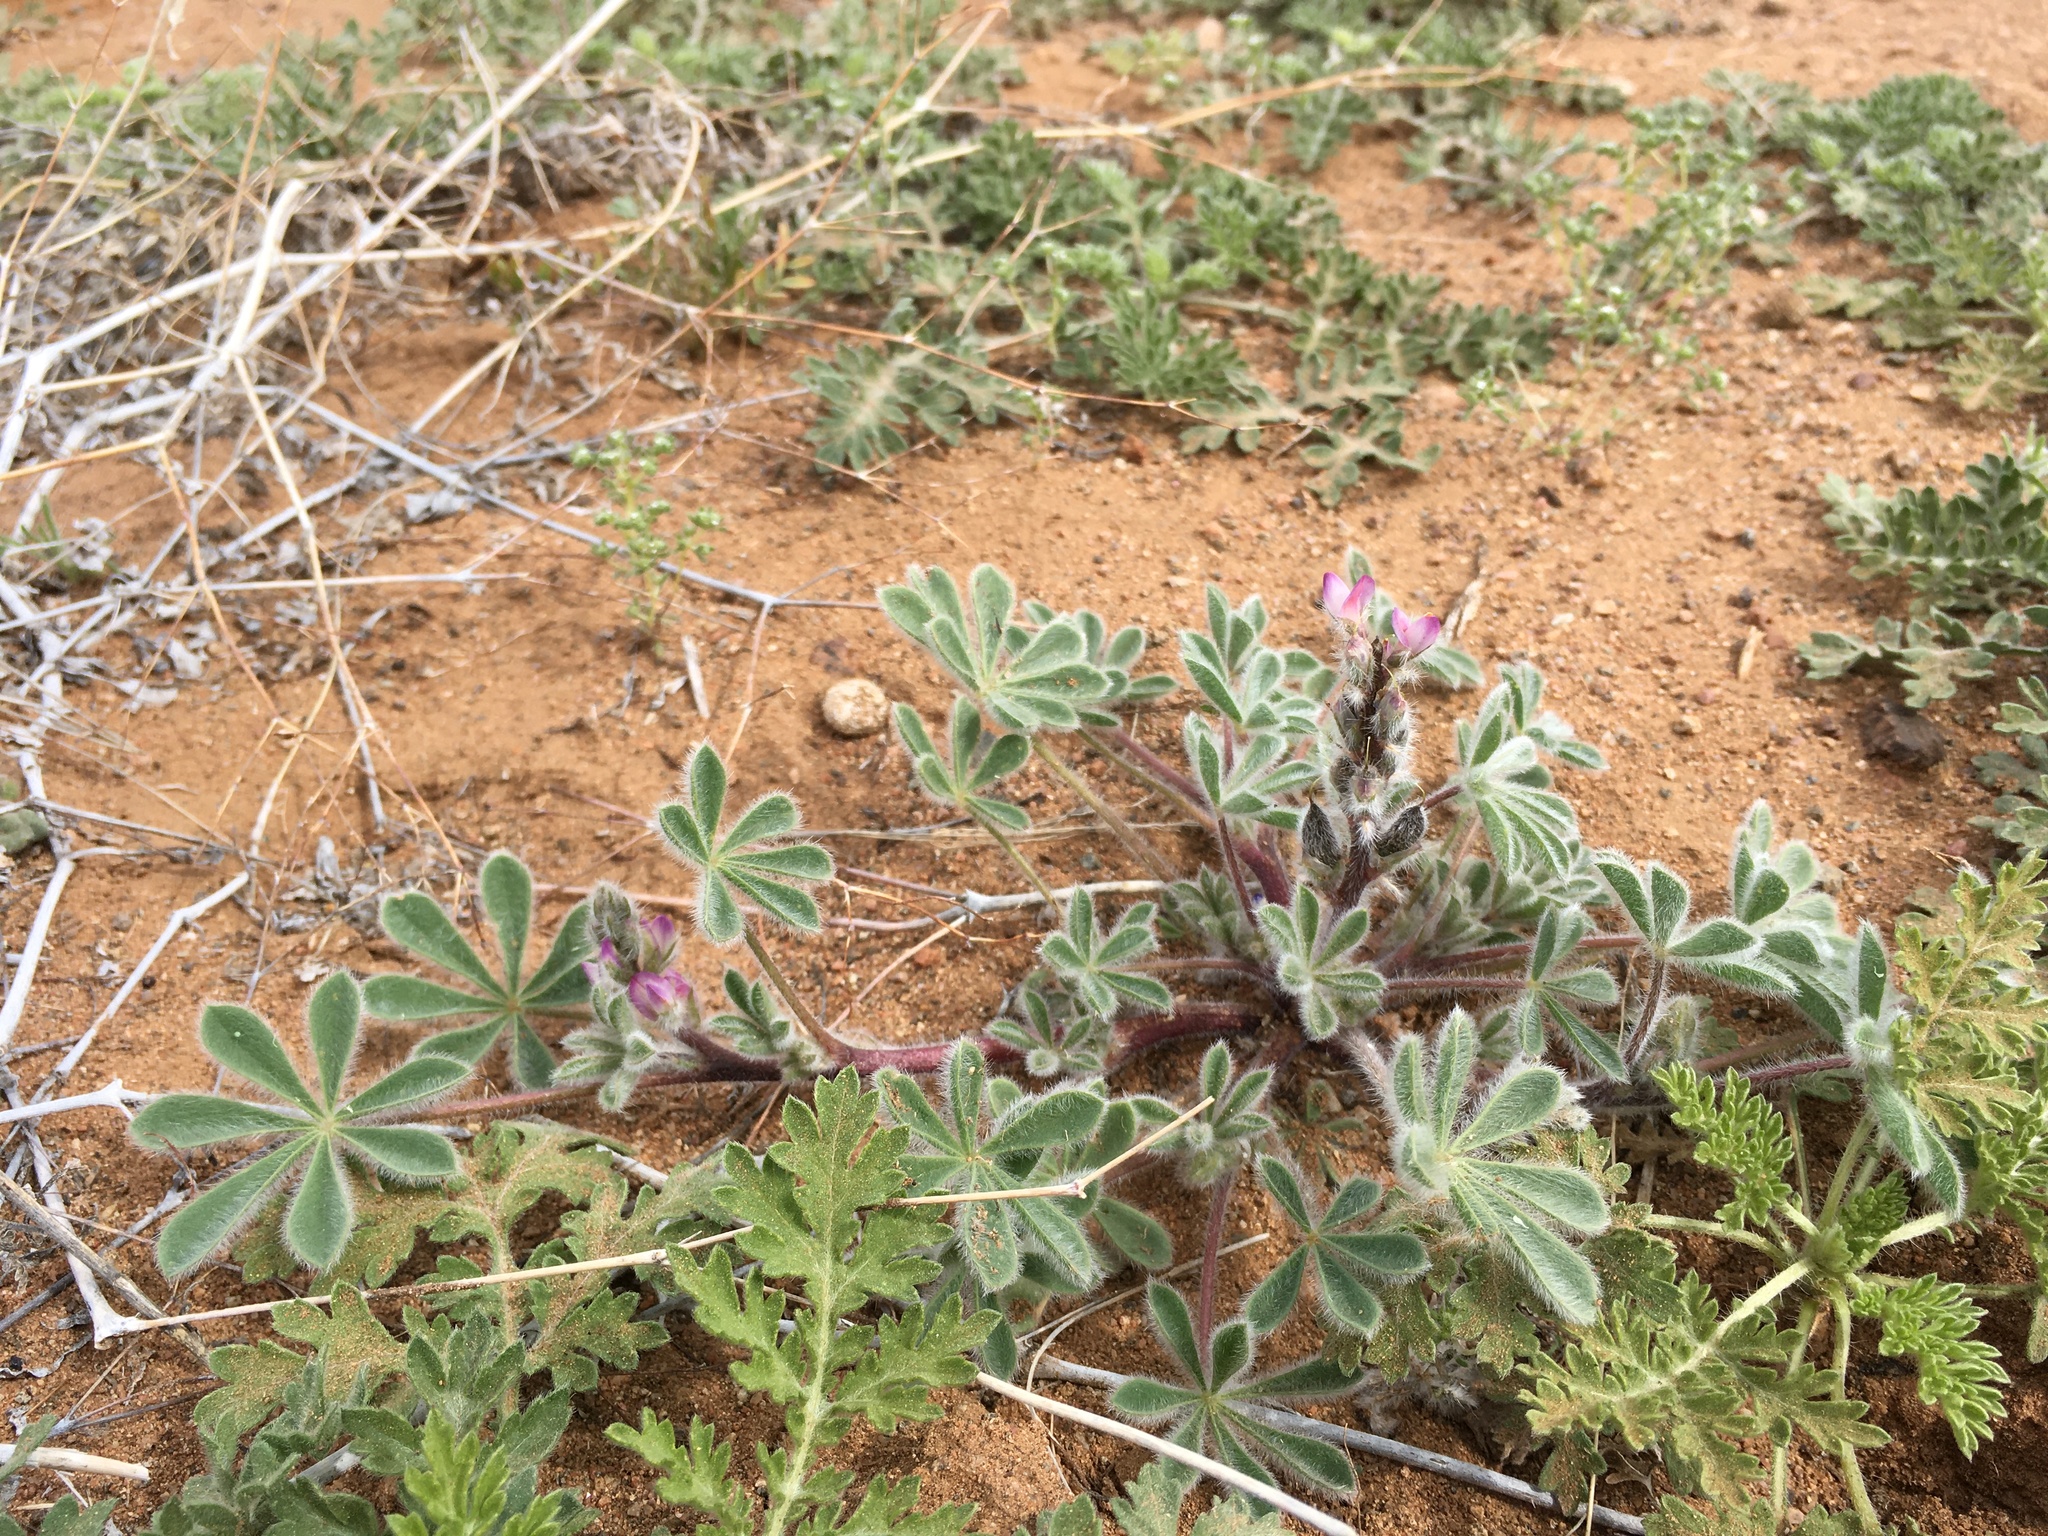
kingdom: Plantae
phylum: Tracheophyta
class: Magnoliopsida
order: Fabales
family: Fabaceae
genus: Lupinus
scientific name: Lupinus concinnus
